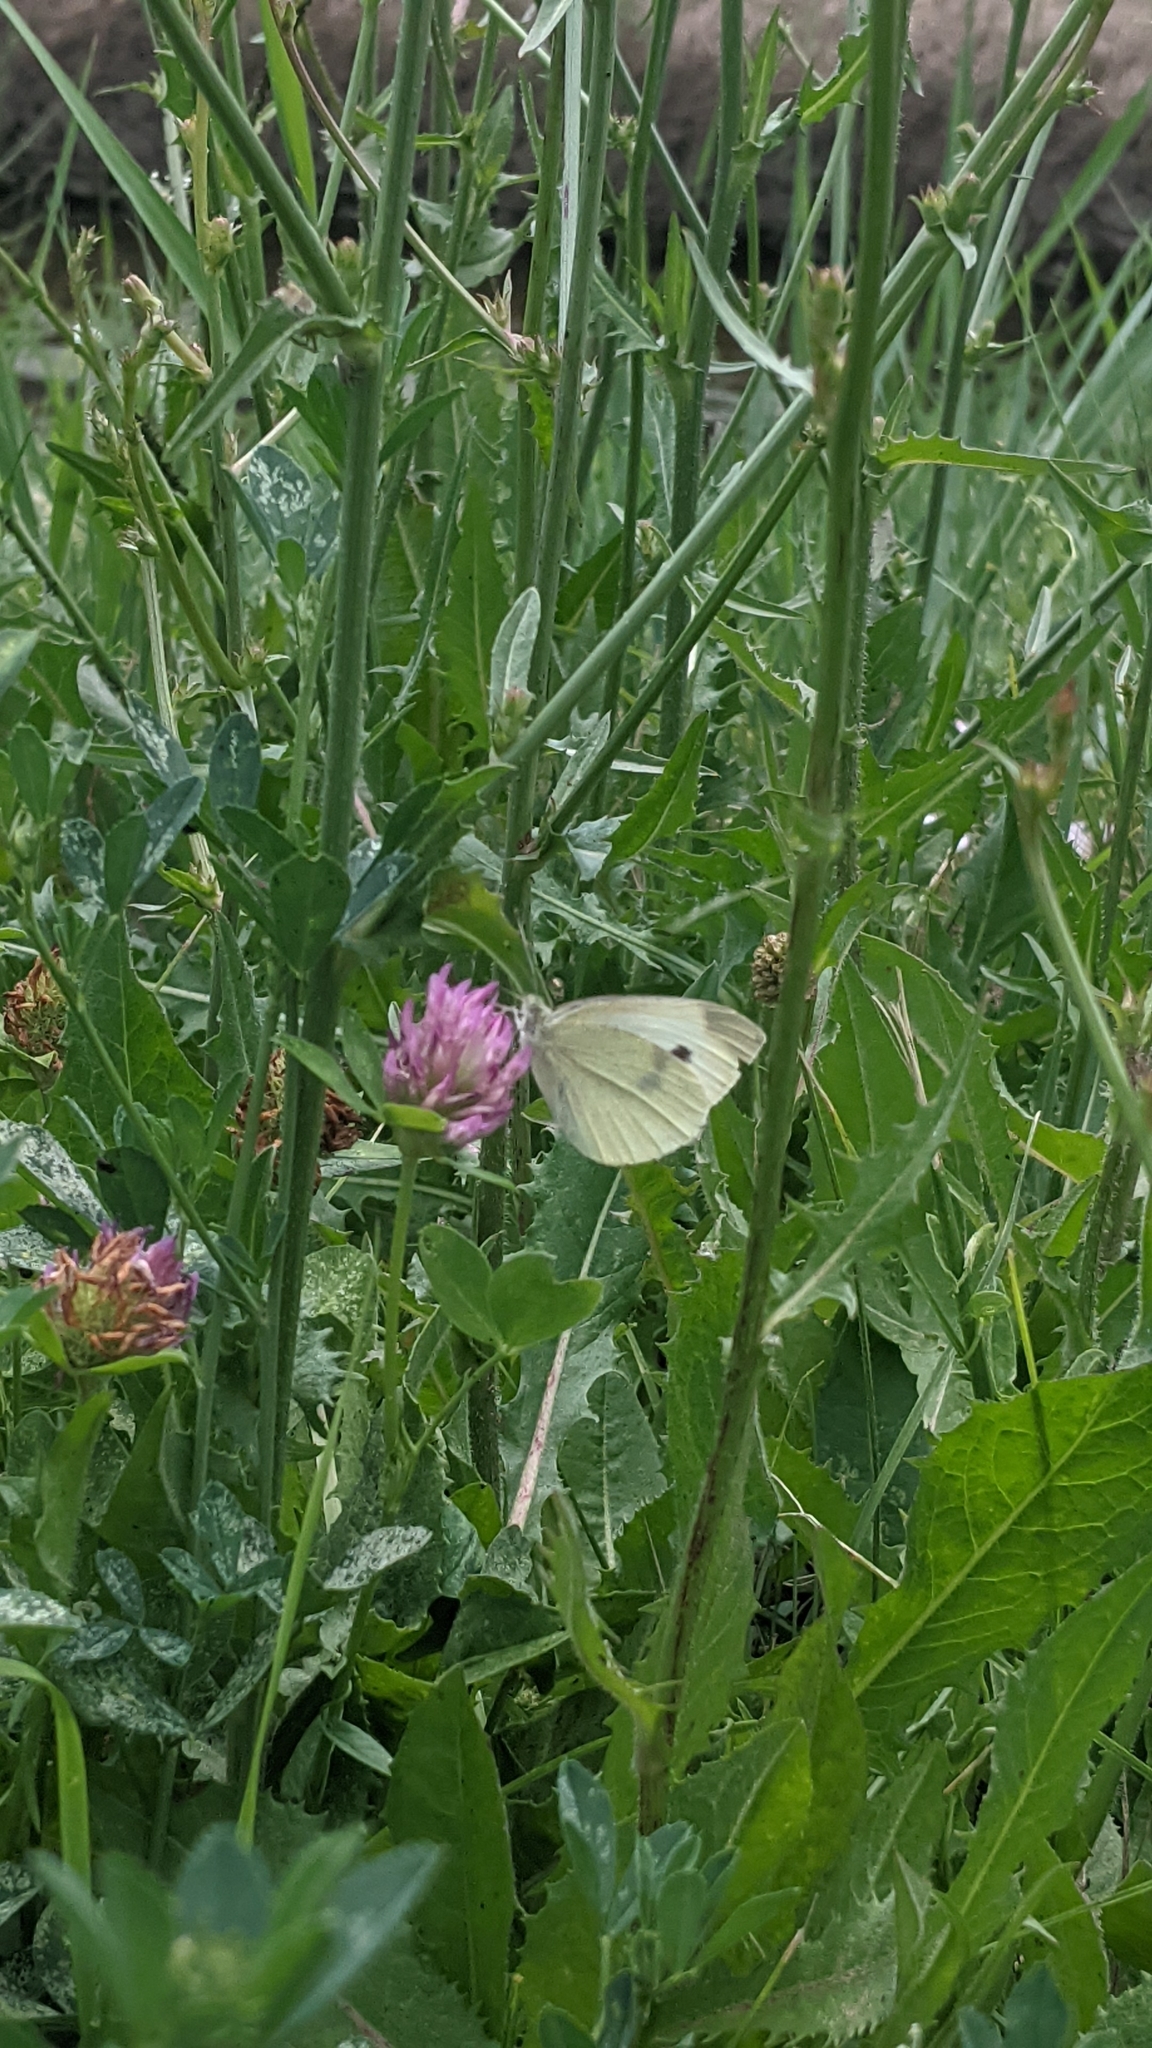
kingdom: Animalia
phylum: Arthropoda
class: Insecta
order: Lepidoptera
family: Pieridae
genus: Pieris
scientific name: Pieris rapae
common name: Small white
